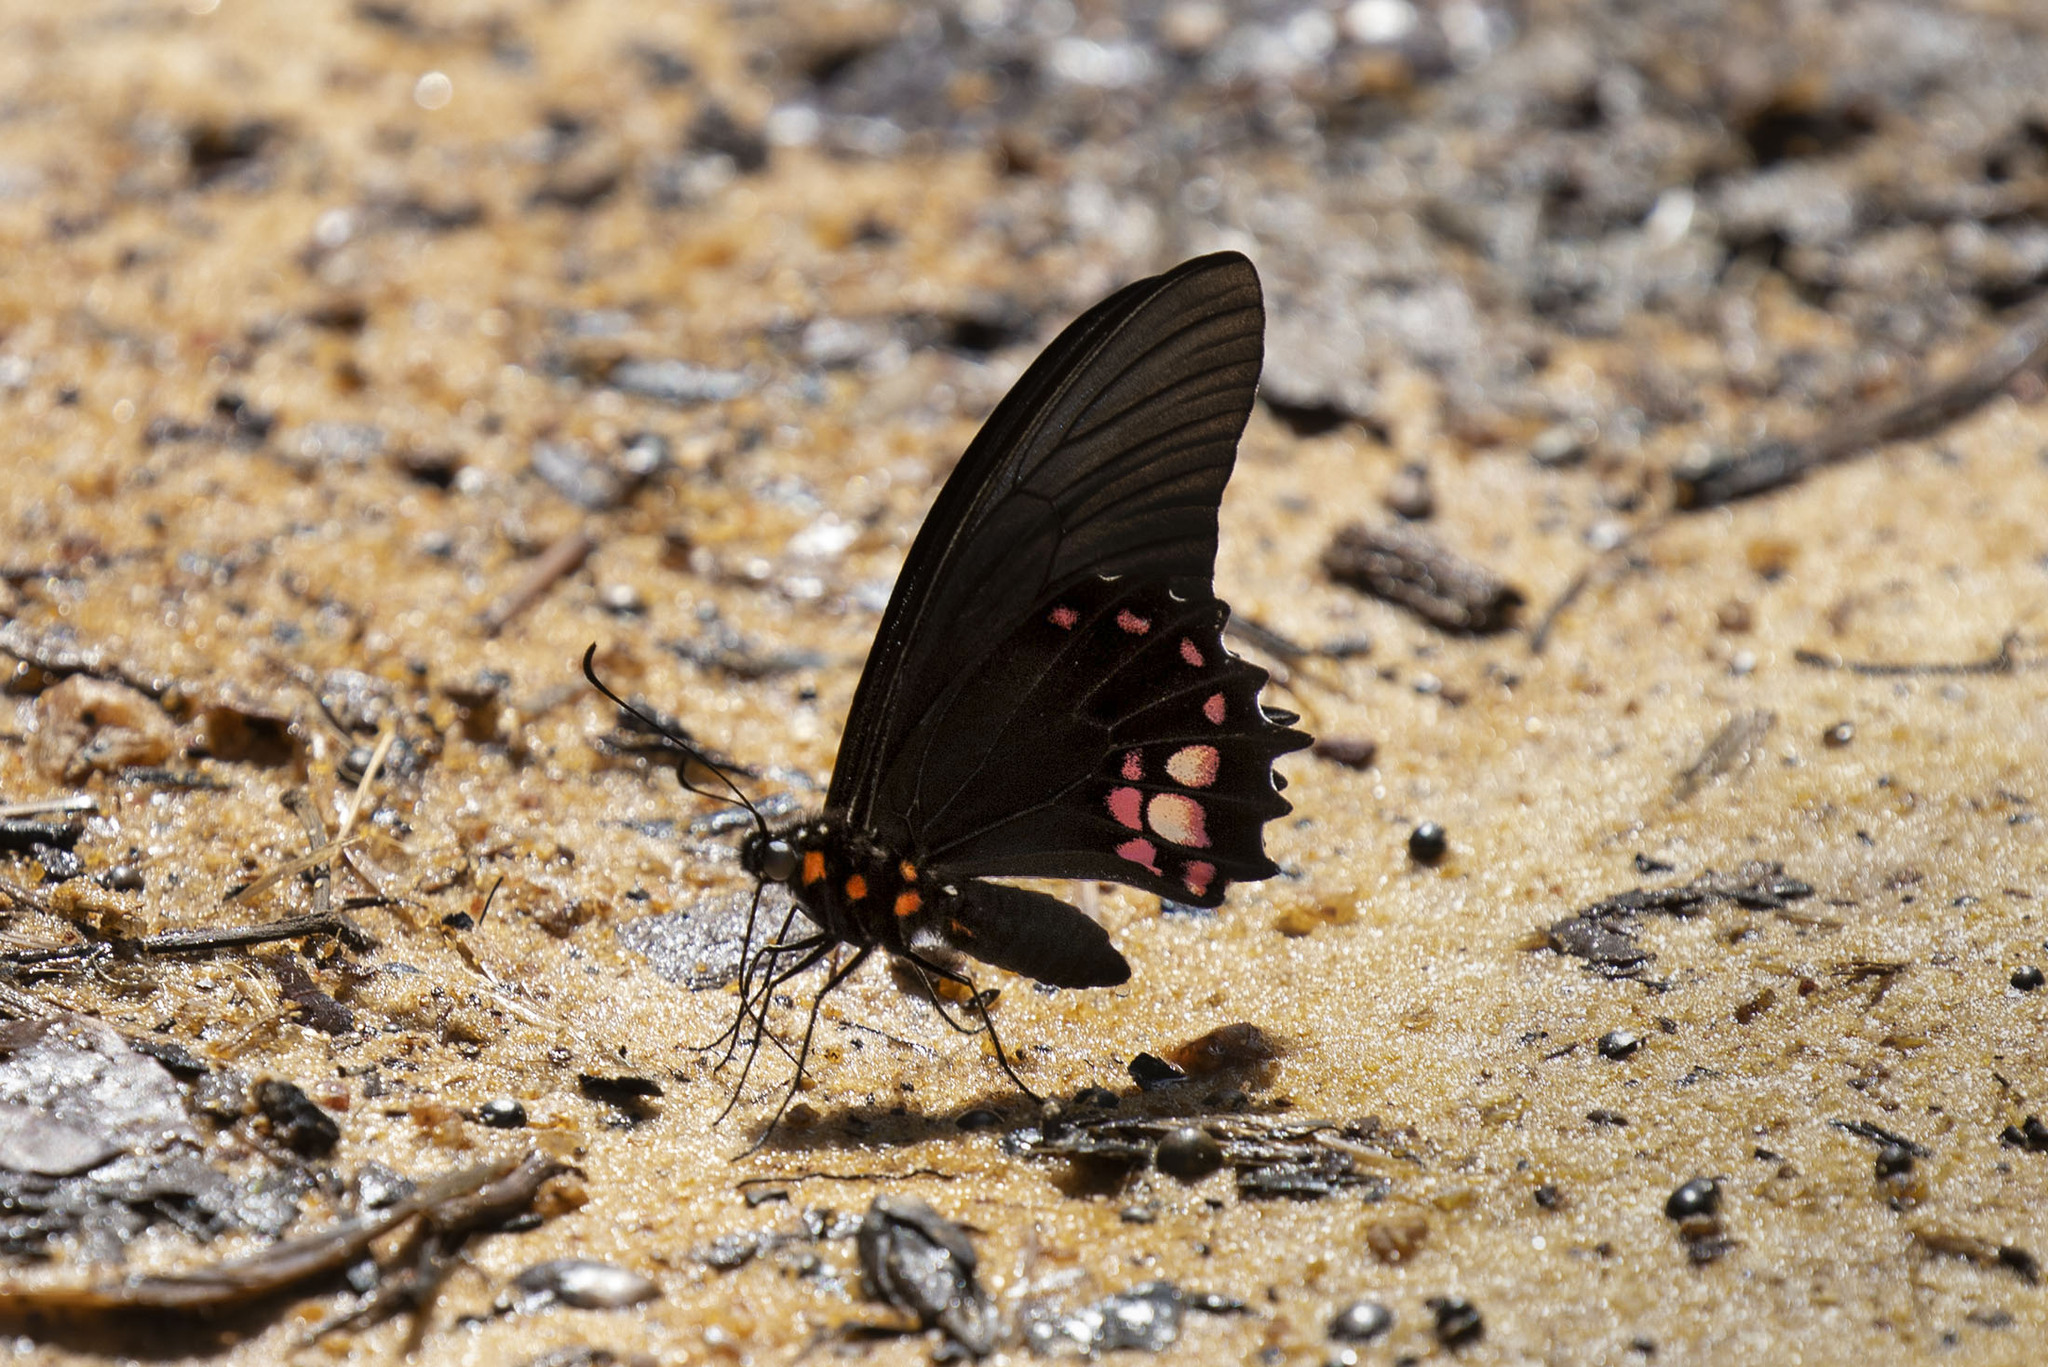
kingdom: Animalia
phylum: Arthropoda
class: Insecta
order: Lepidoptera
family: Papilionidae
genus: Papilio
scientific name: Papilio anchisiades
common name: Idaes swallowtail
